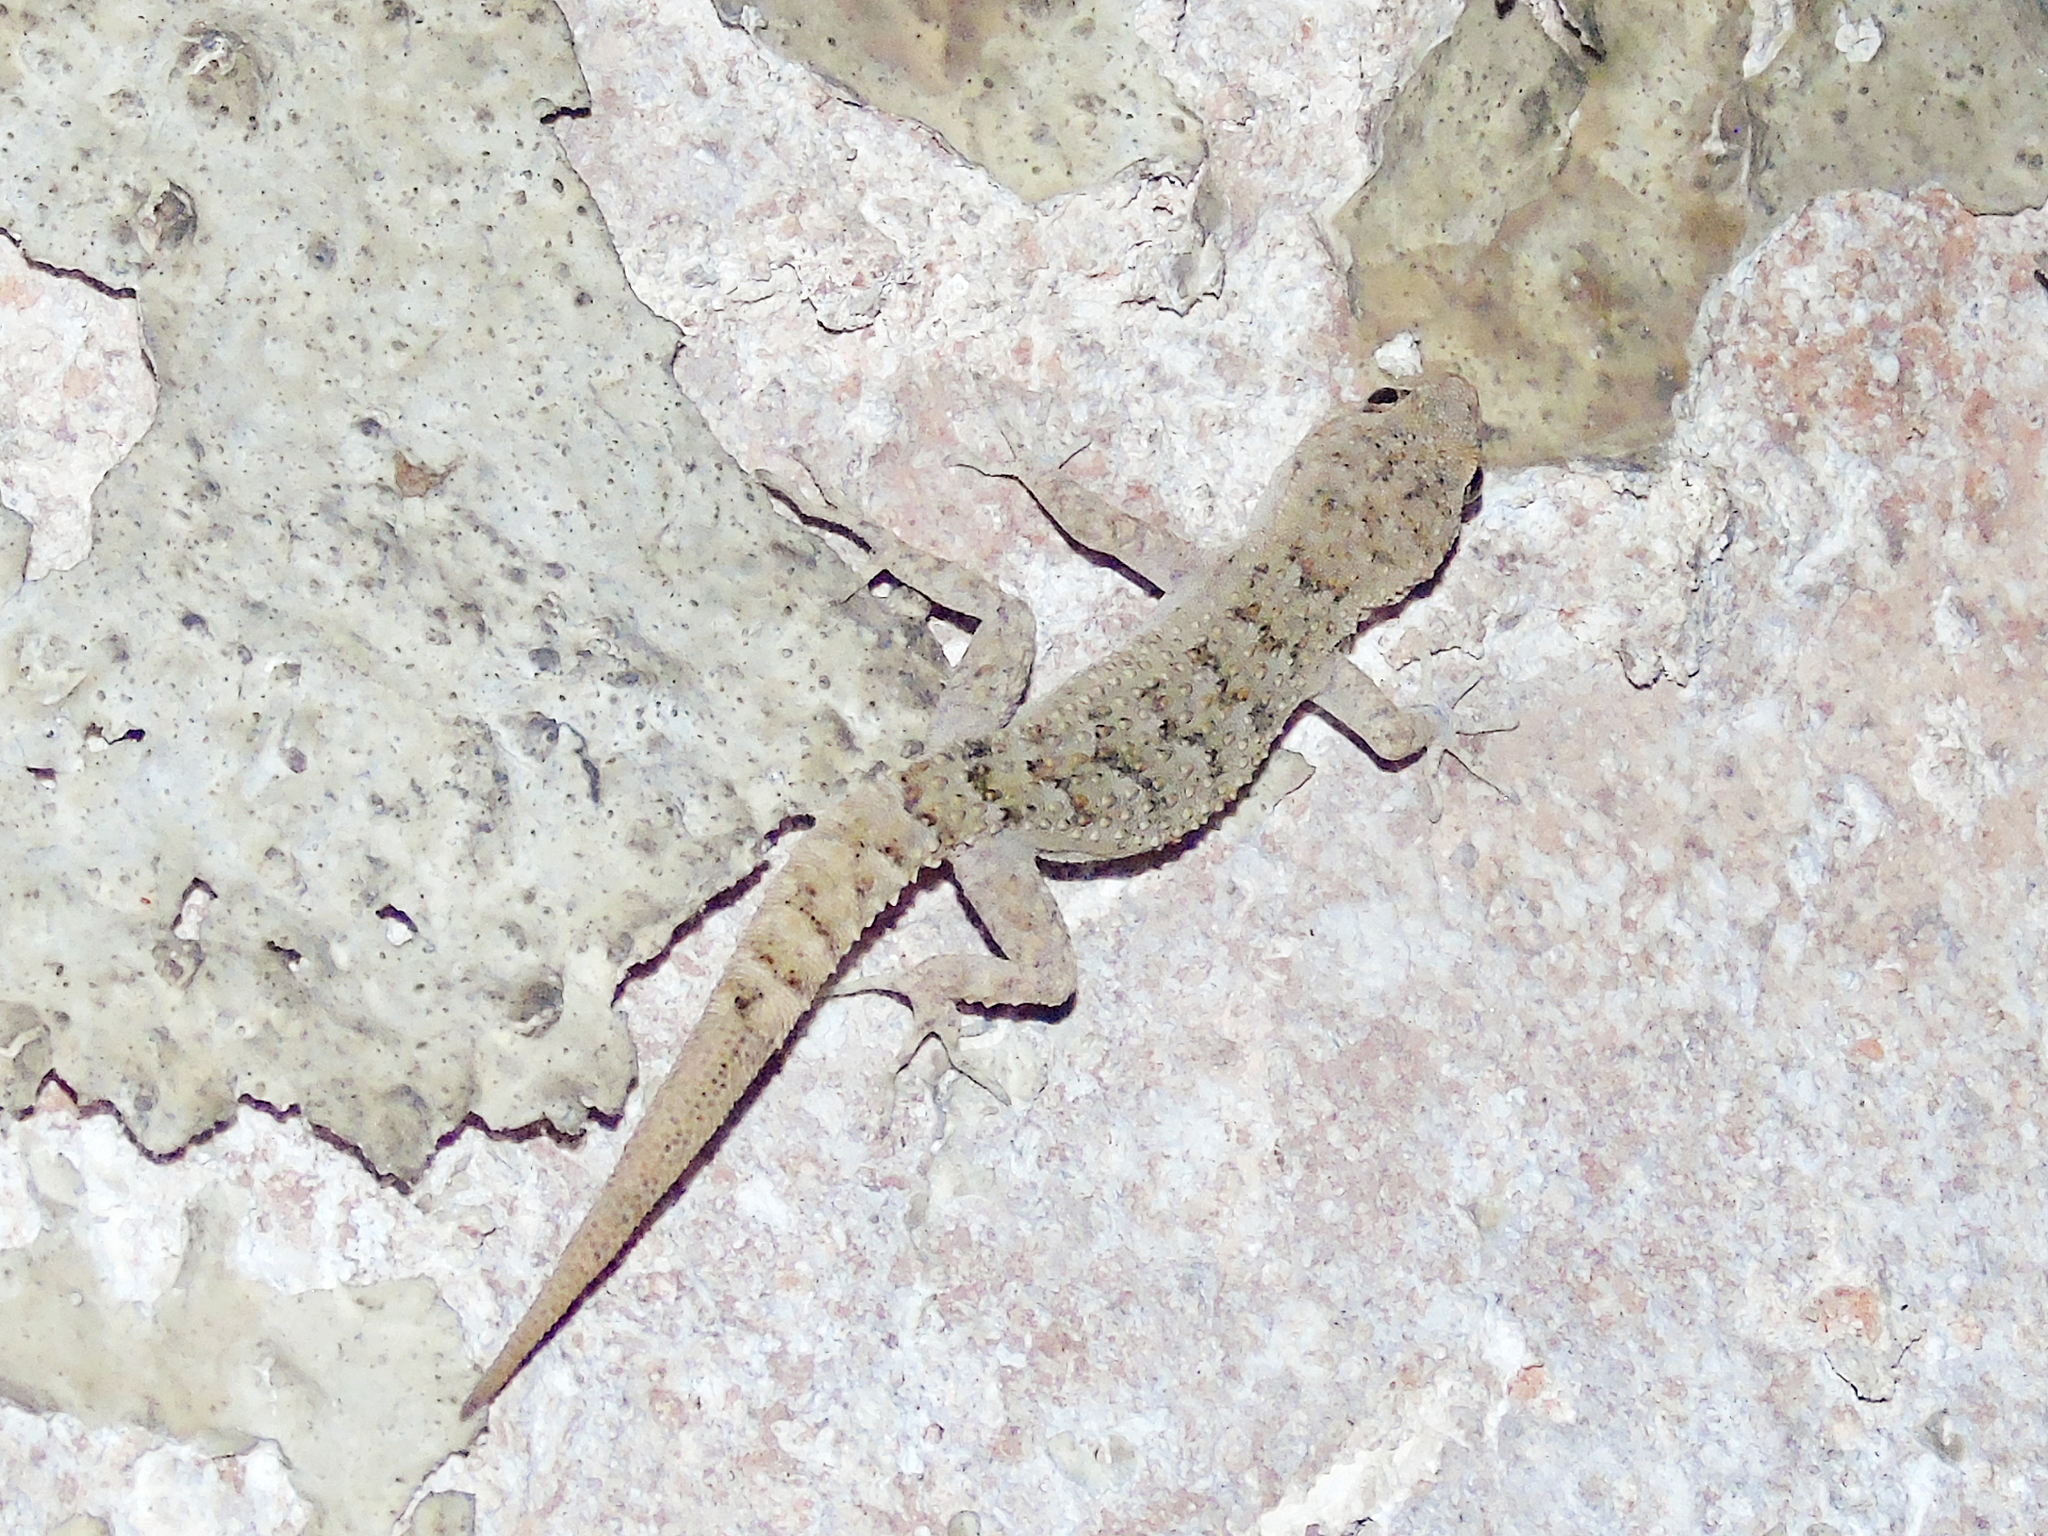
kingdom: Animalia
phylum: Chordata
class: Squamata
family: Gekkonidae
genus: Mediodactylus
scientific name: Mediodactylus kotschyi
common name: Kotschy's gecko
